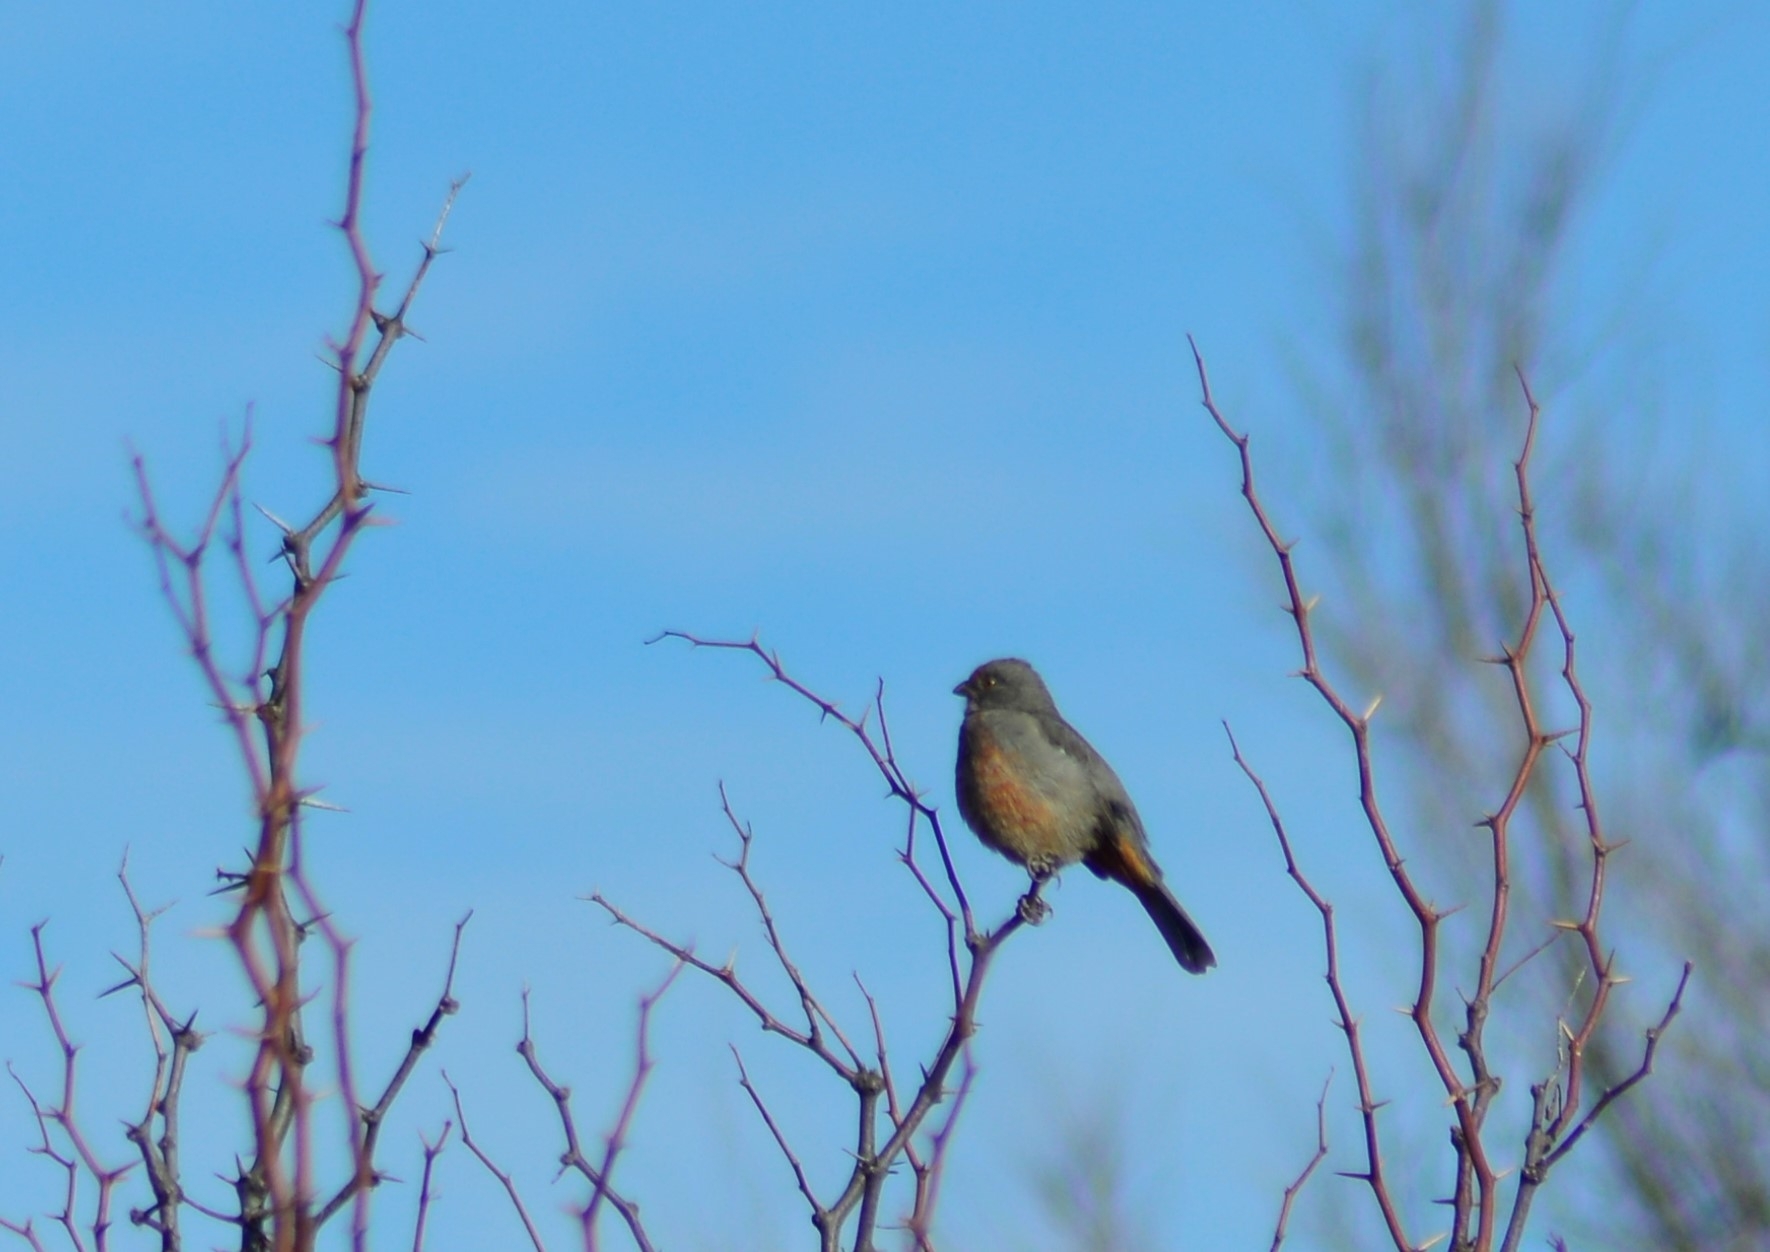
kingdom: Animalia
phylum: Chordata
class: Aves
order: Passeriformes
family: Cotingidae
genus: Phytotoma
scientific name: Phytotoma rutila
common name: White-tipped plantcutter
